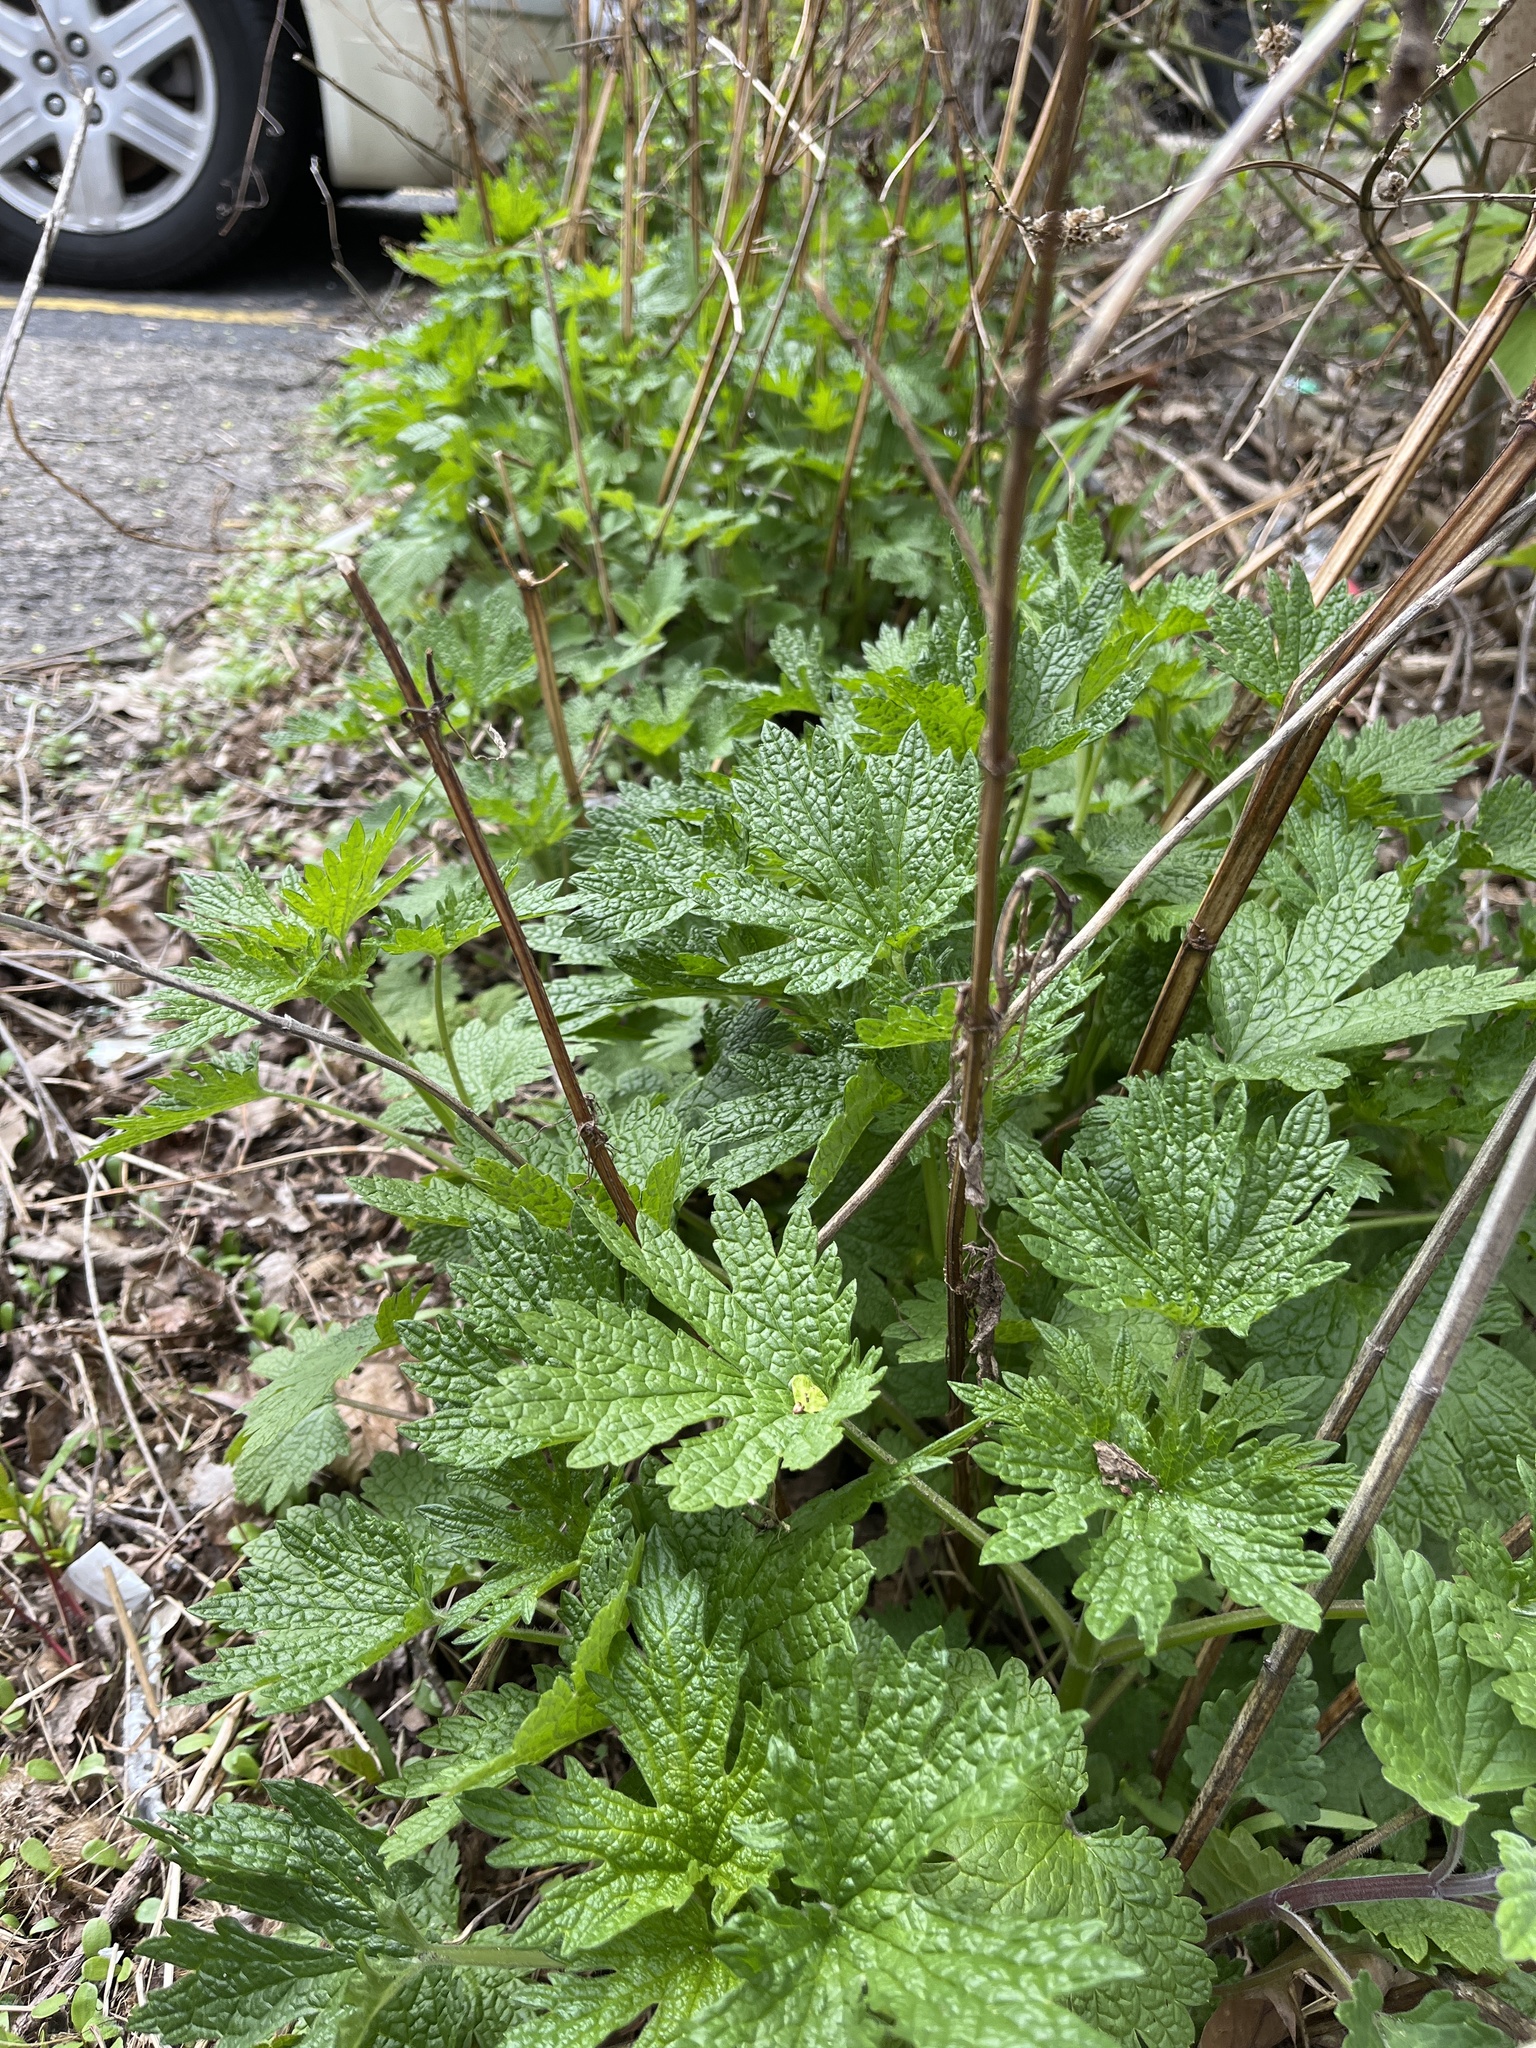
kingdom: Plantae
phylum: Tracheophyta
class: Magnoliopsida
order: Lamiales
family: Lamiaceae
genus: Leonurus
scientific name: Leonurus cardiaca
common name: Motherwort
